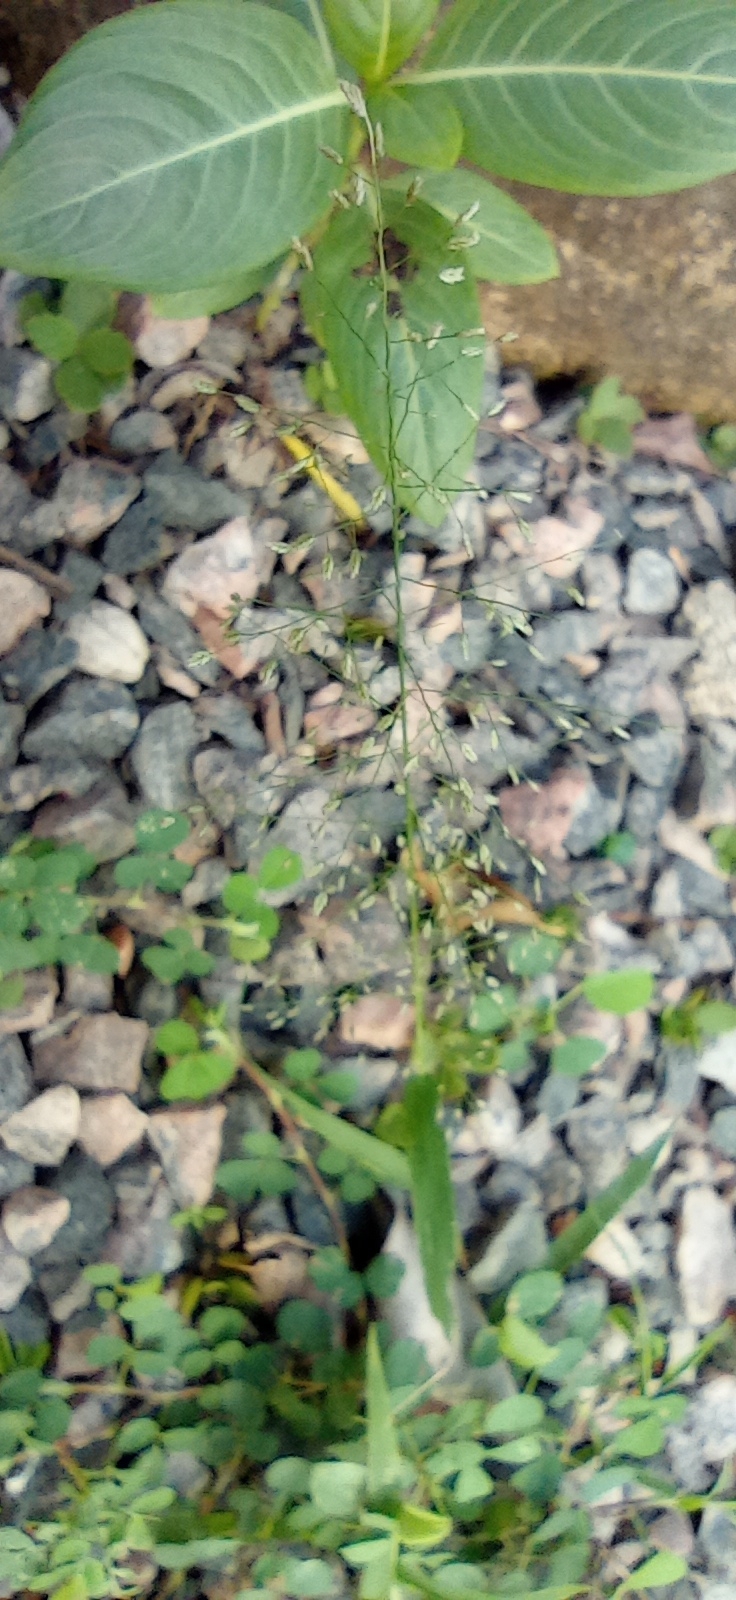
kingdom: Plantae
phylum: Tracheophyta
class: Liliopsida
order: Poales
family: Poaceae
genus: Eragrostis
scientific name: Eragrostis tenella
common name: Japanese lovegrass
